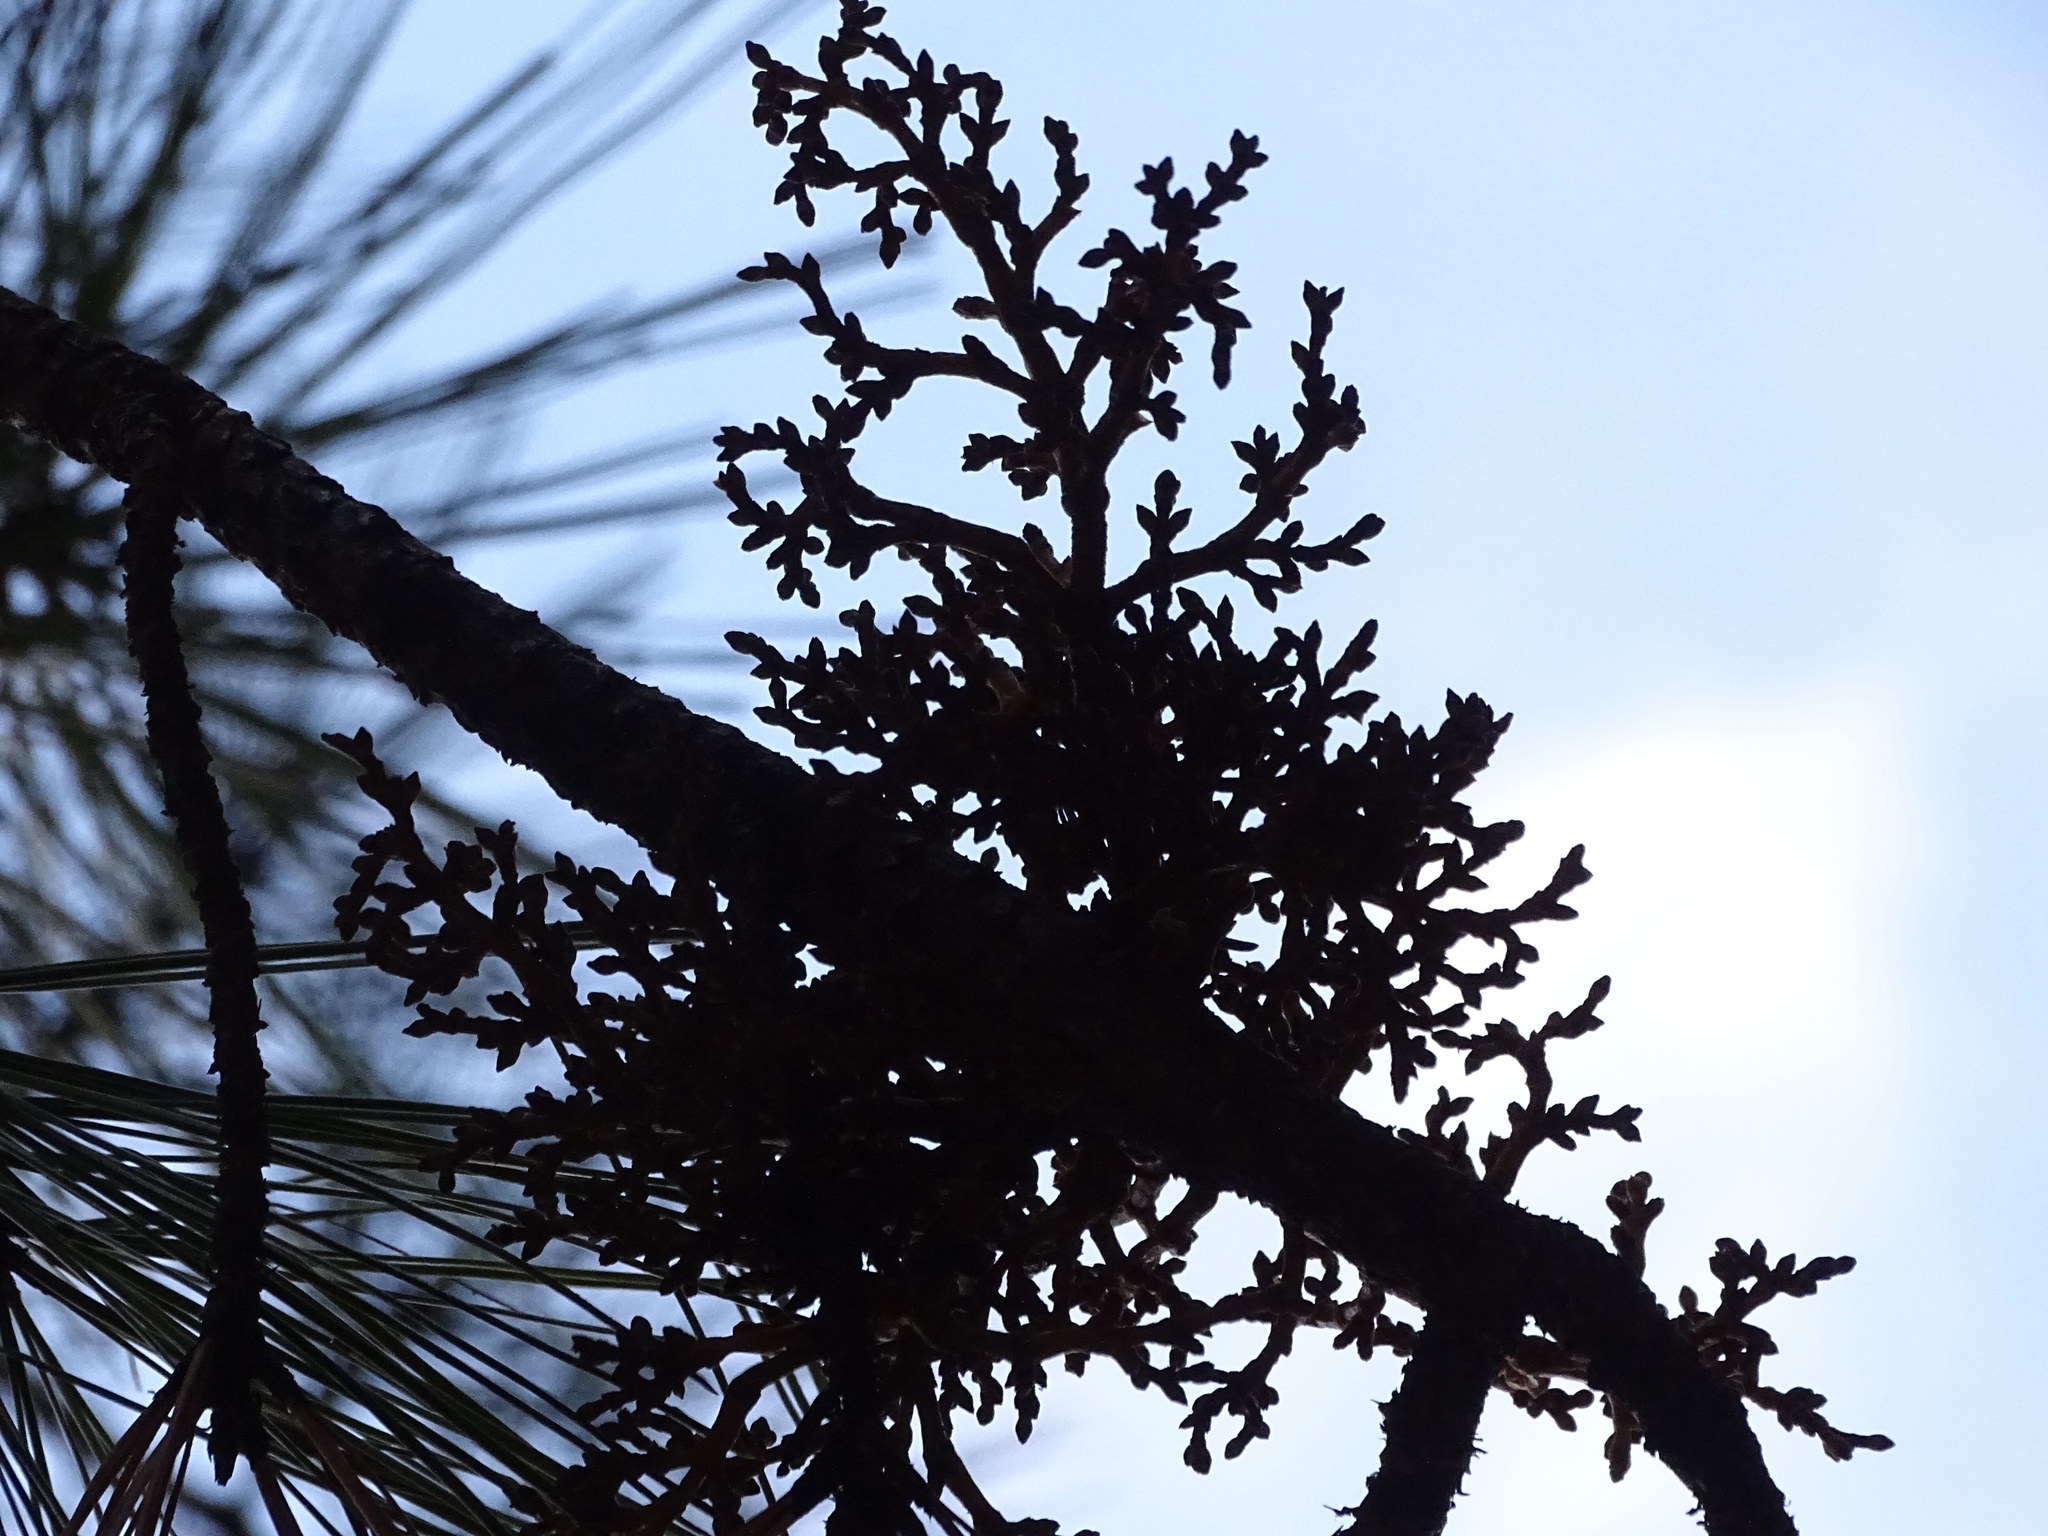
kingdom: Plantae
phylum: Tracheophyta
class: Magnoliopsida
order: Santalales
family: Viscaceae
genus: Arceuthobium
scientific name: Arceuthobium vaginatum
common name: Southwestern dwarf-mistletoe
